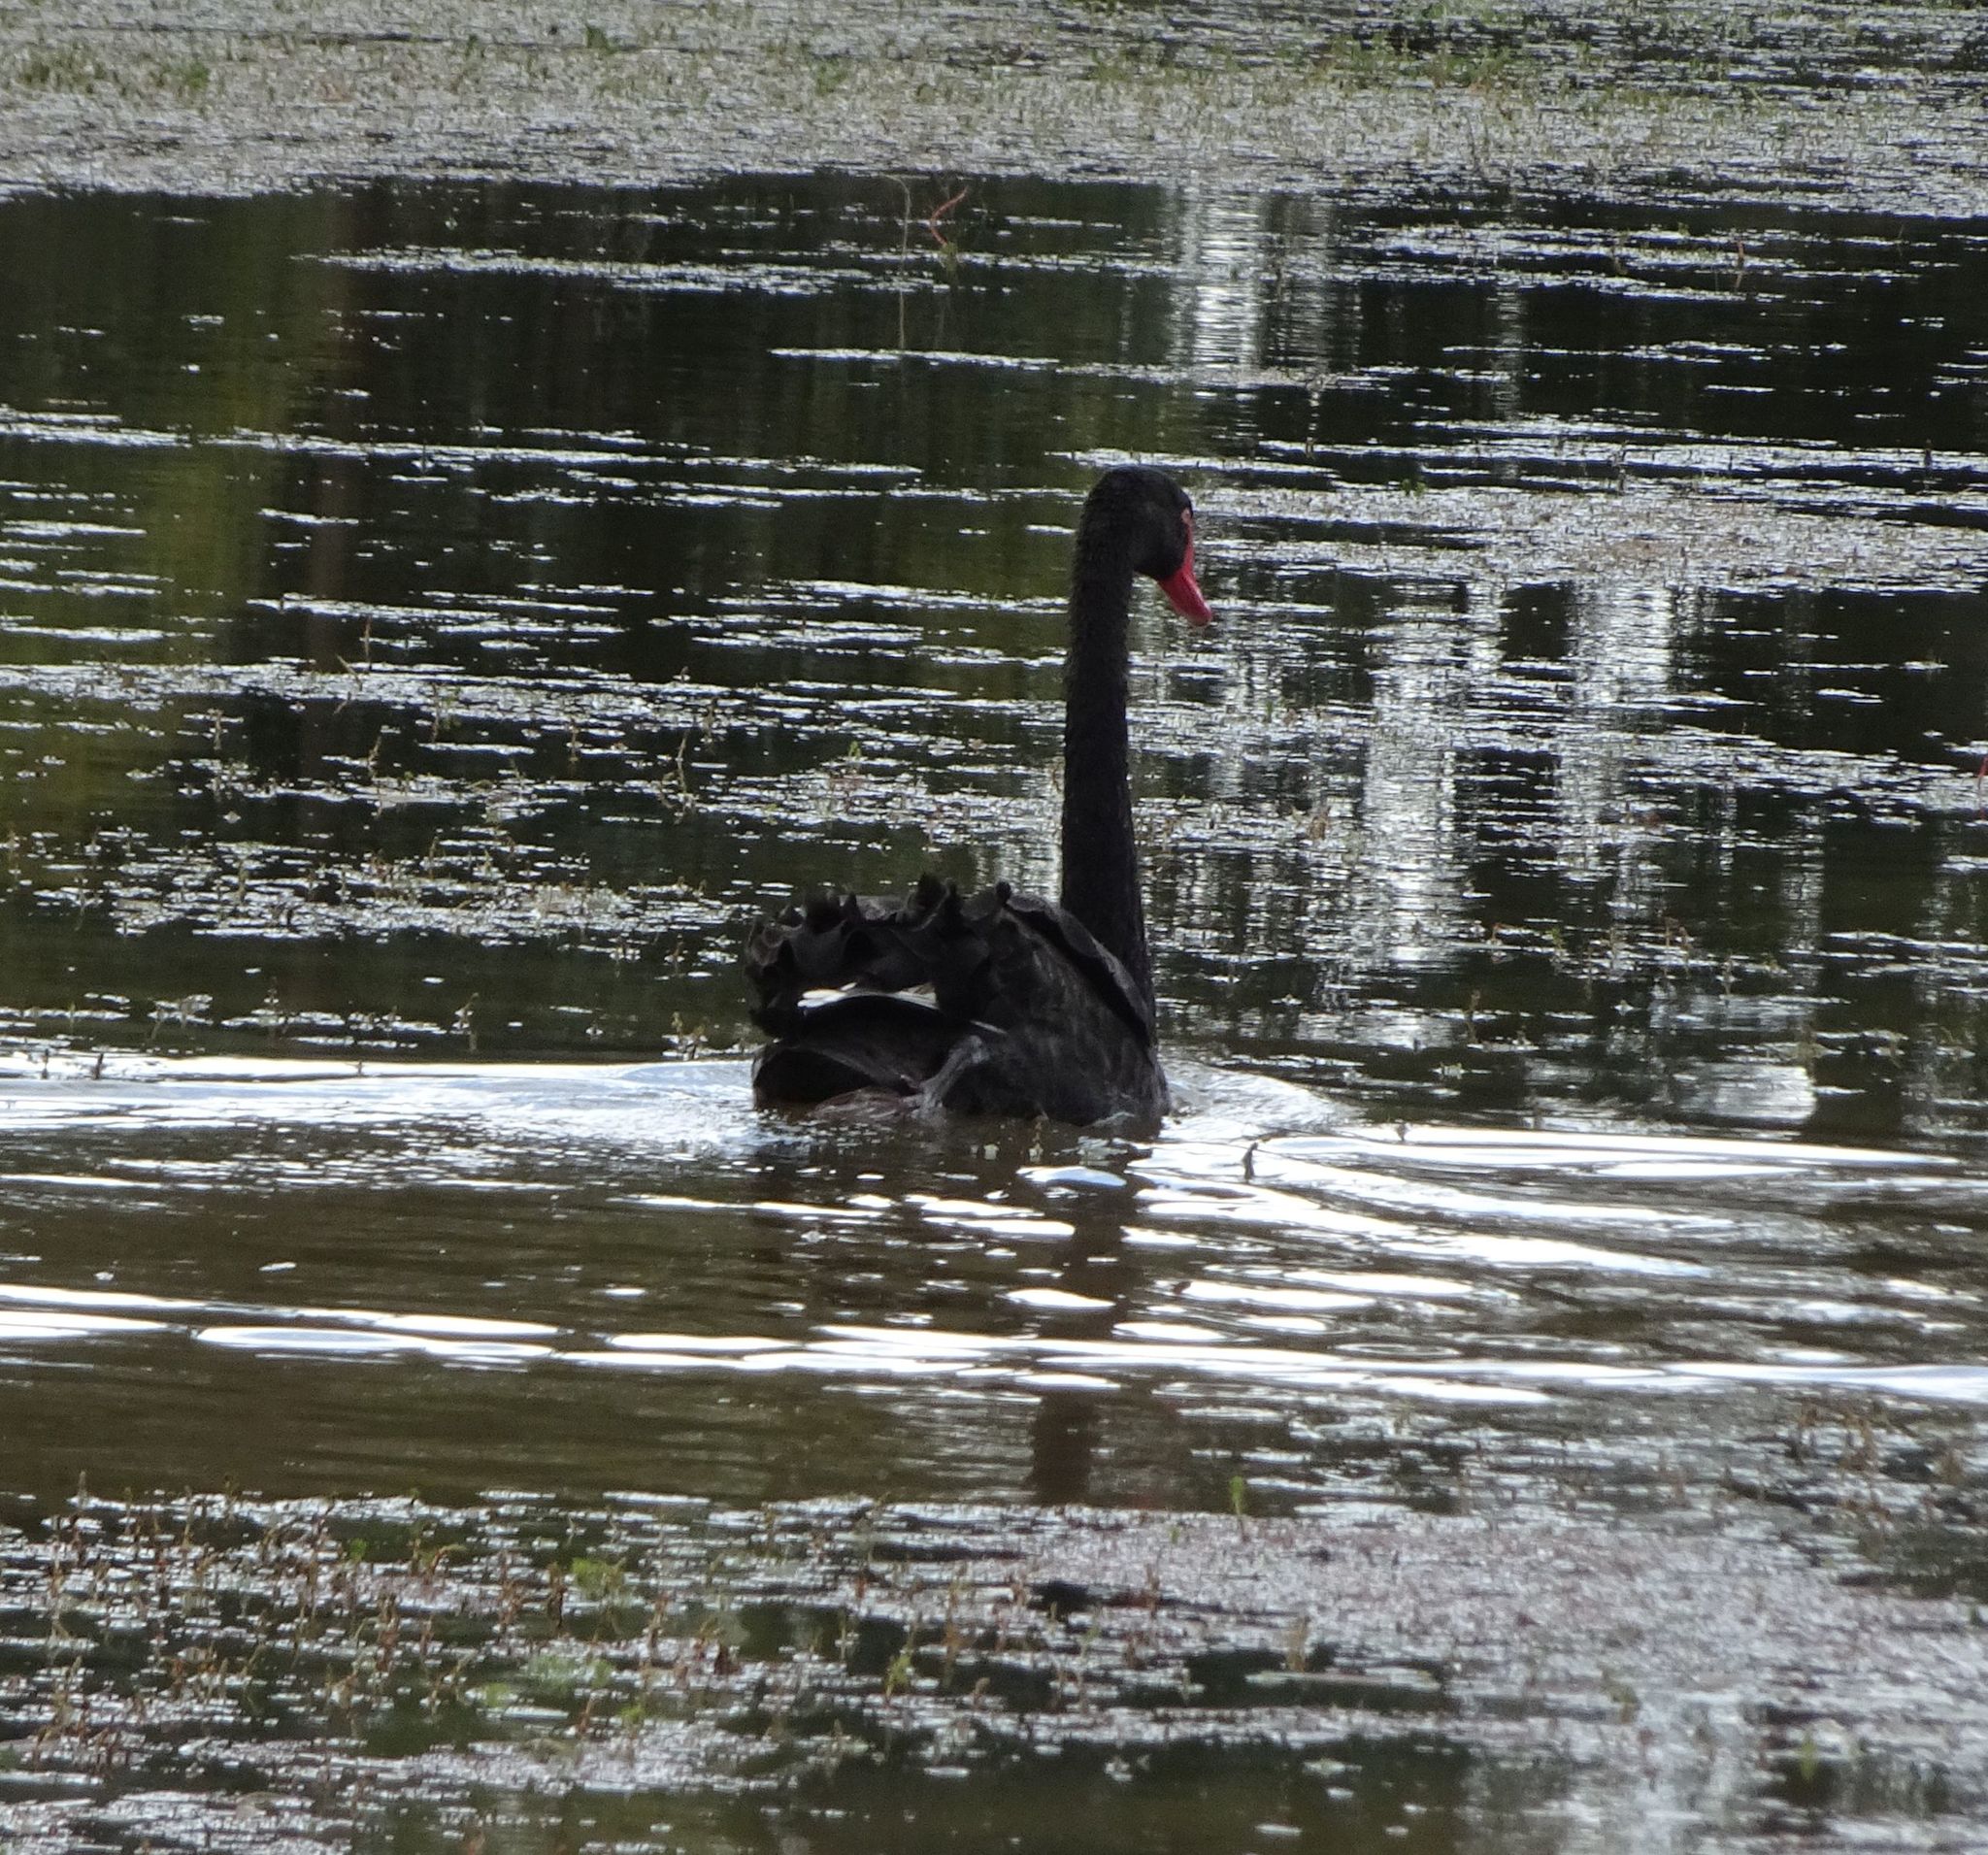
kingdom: Animalia
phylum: Chordata
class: Aves
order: Anseriformes
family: Anatidae
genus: Cygnus
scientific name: Cygnus atratus
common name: Black swan
